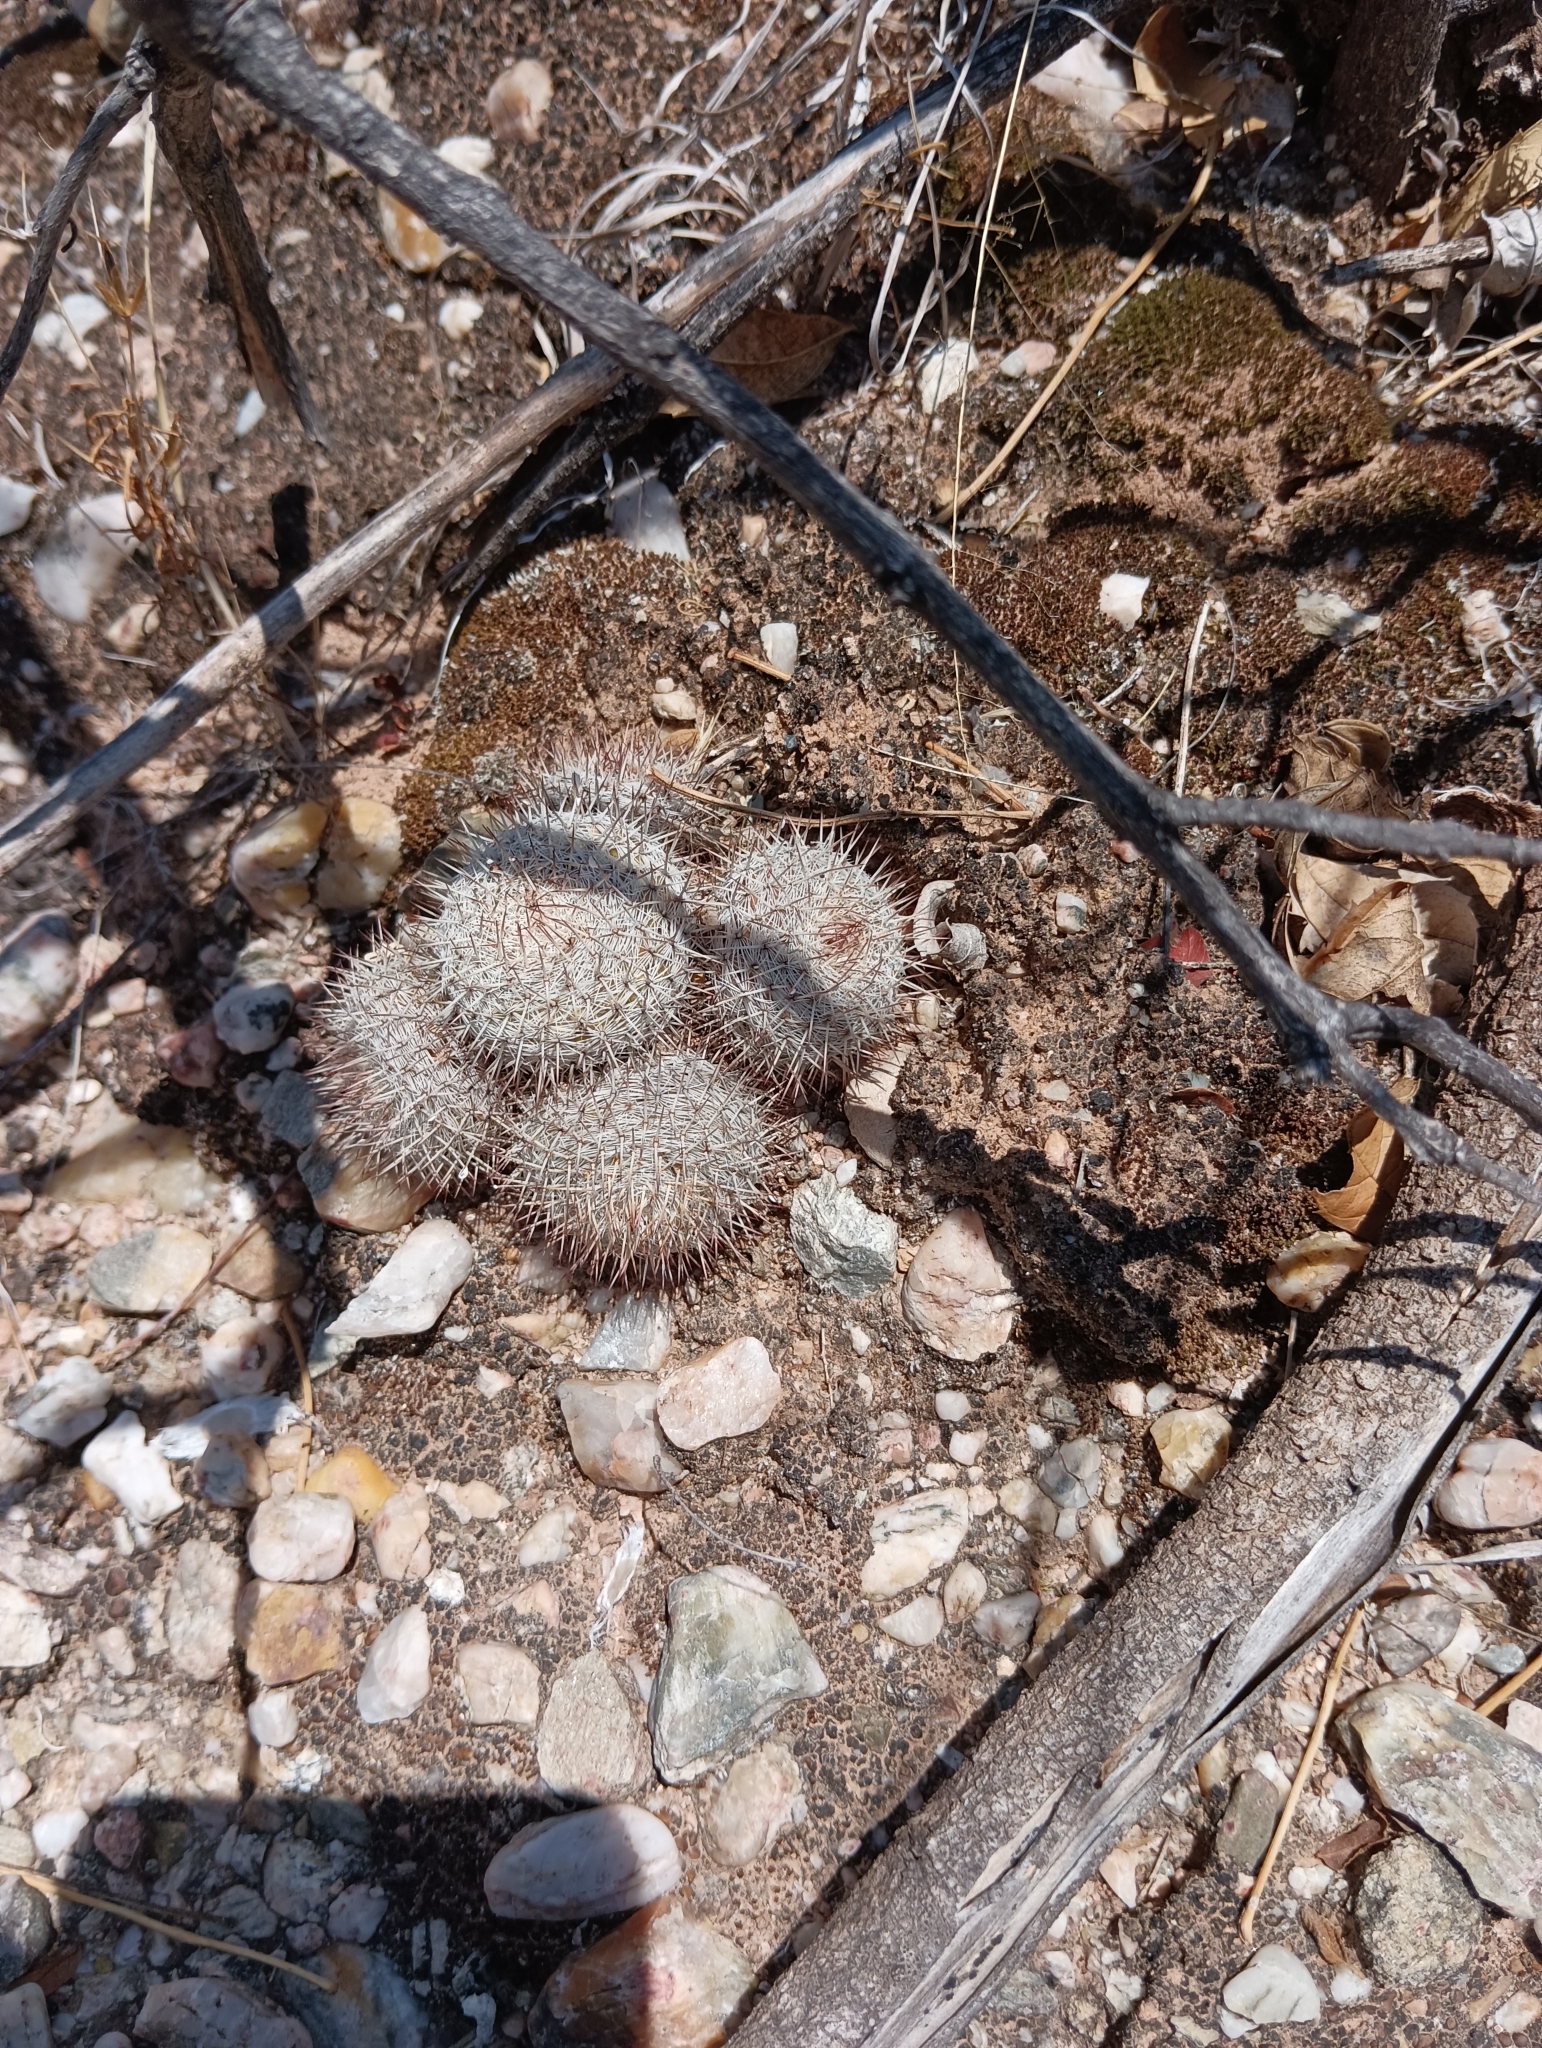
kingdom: Plantae
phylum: Tracheophyta
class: Magnoliopsida
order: Caryophyllales
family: Cactaceae
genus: Mammillaria
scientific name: Mammillaria haageana
